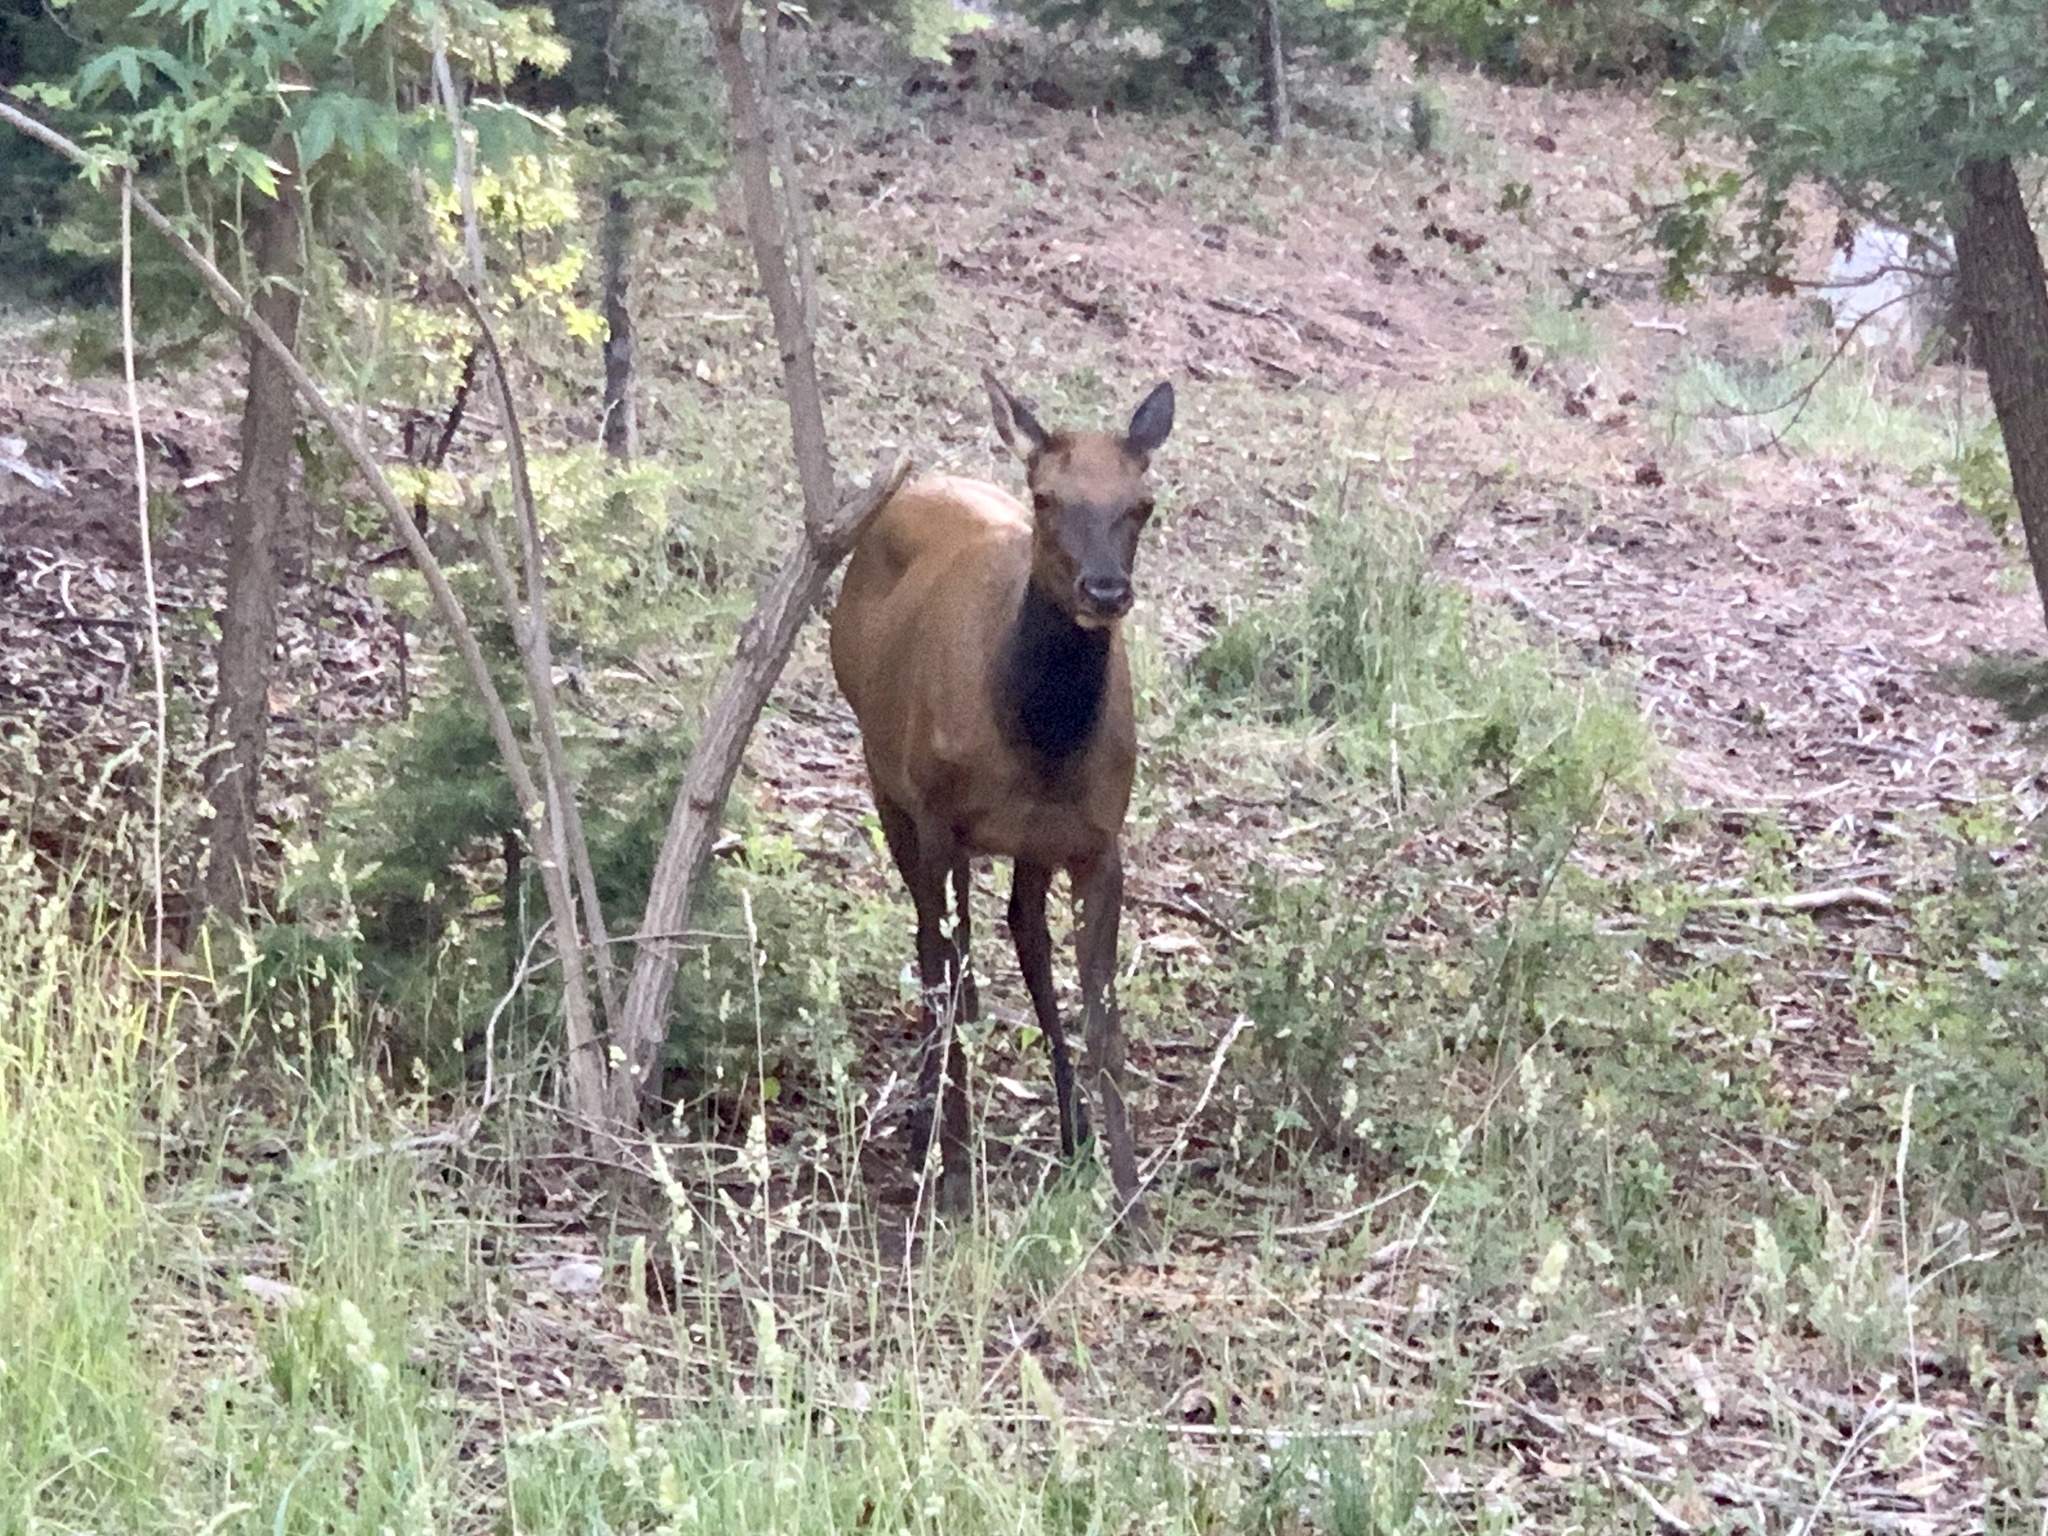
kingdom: Animalia
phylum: Chordata
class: Mammalia
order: Artiodactyla
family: Cervidae
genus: Cervus
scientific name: Cervus elaphus
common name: Red deer
